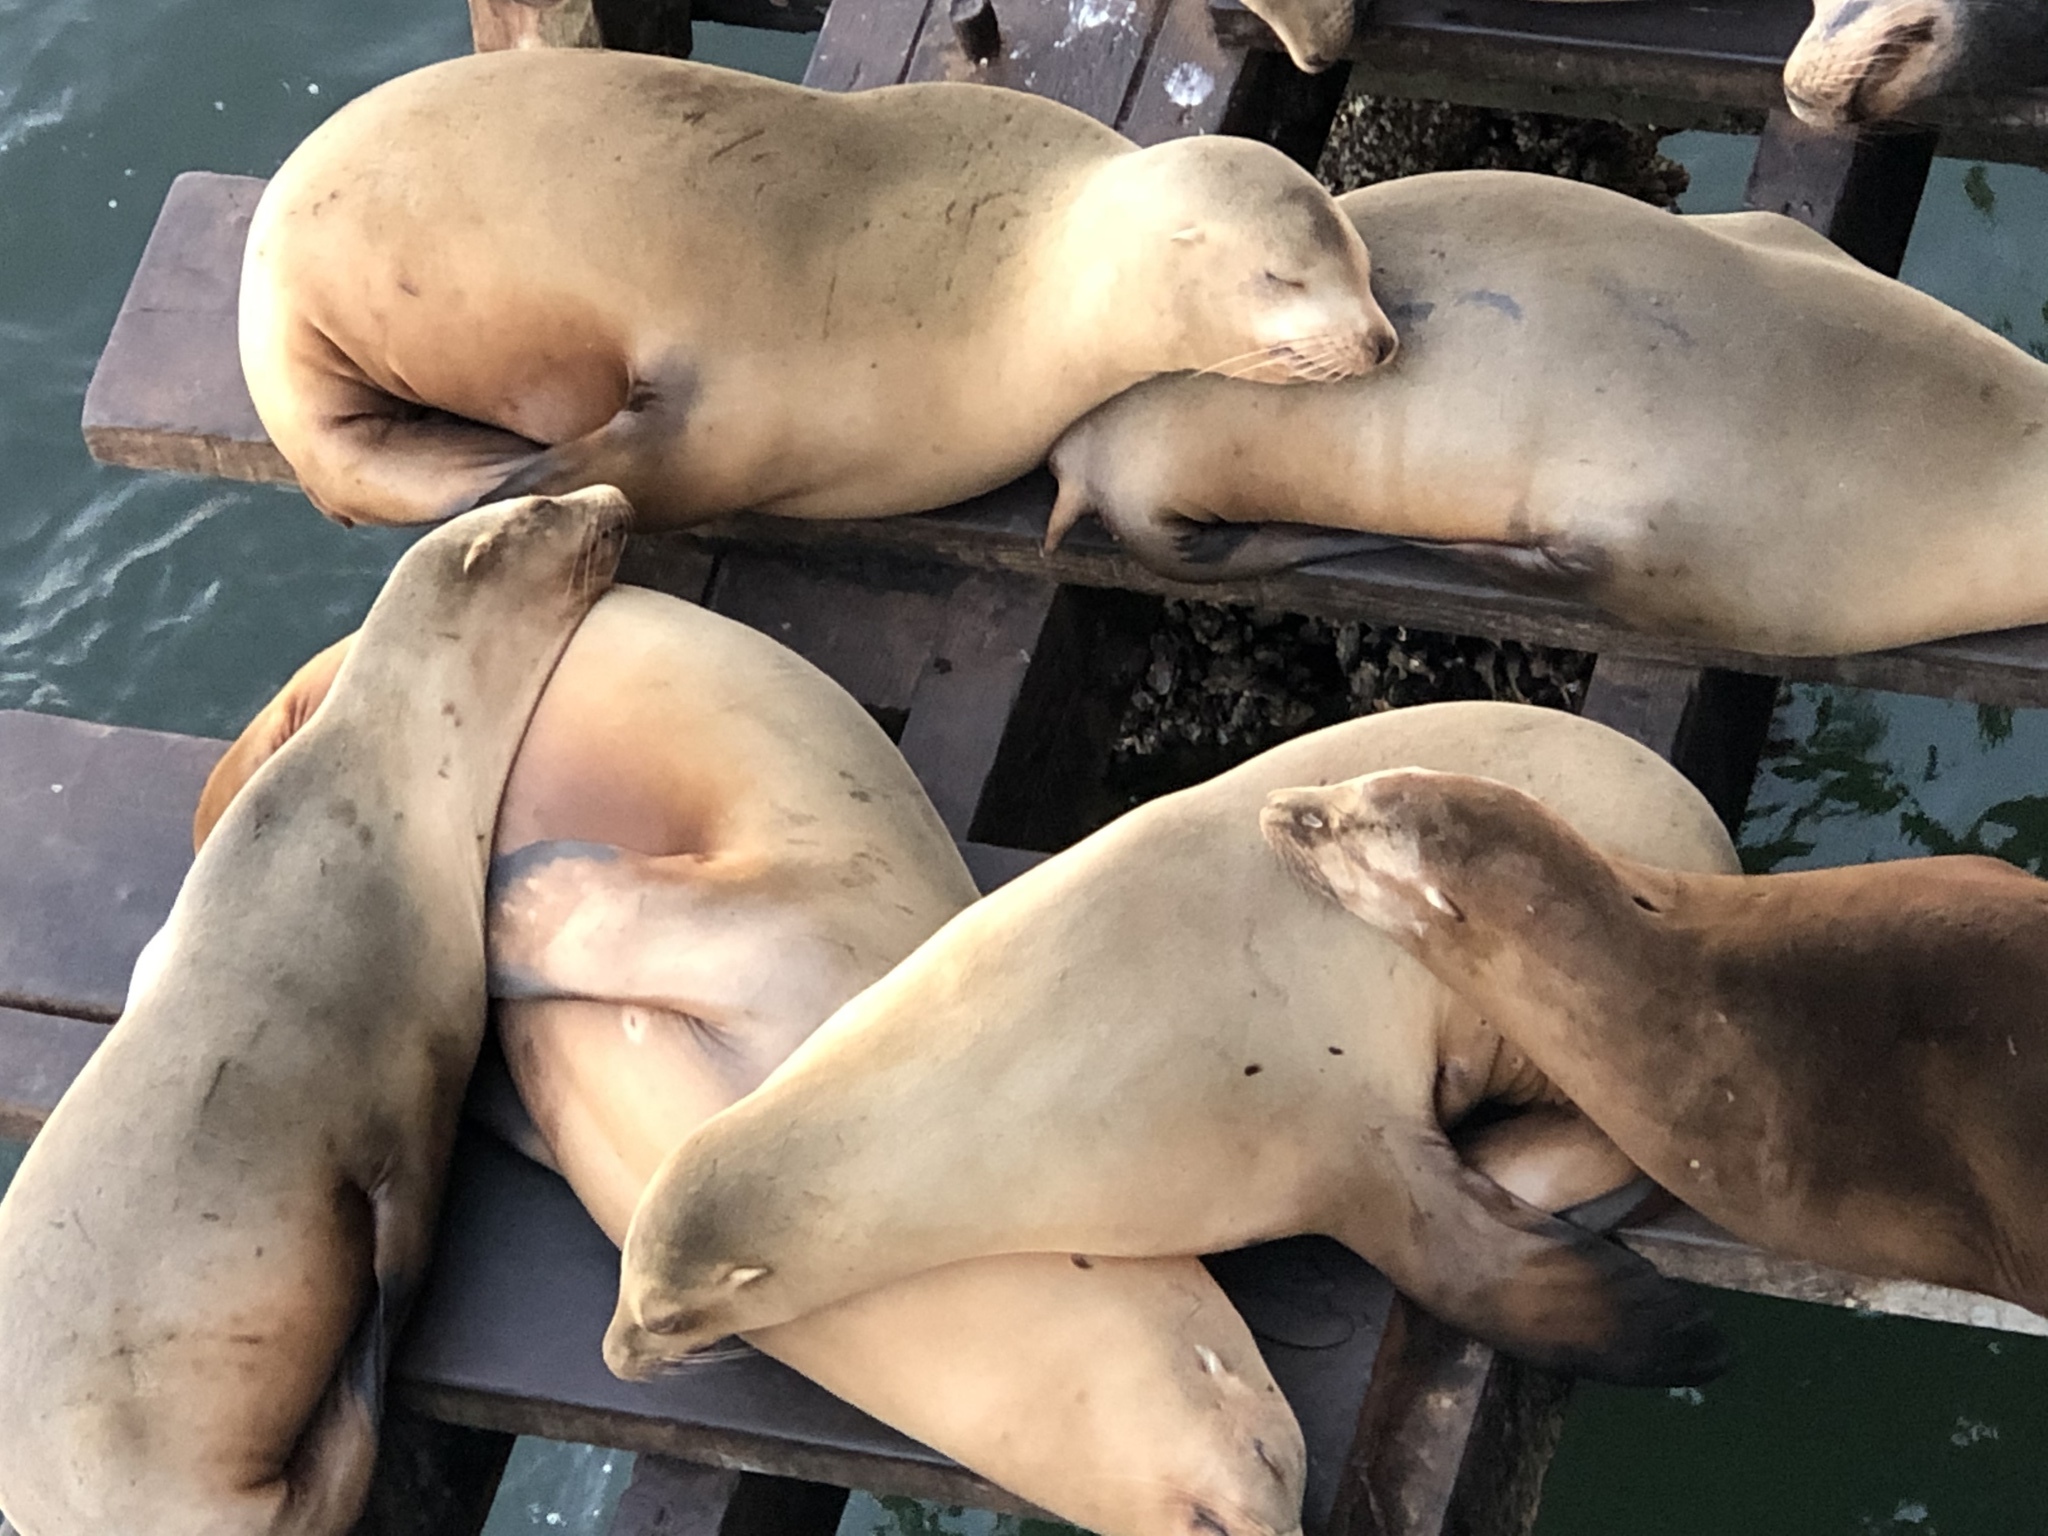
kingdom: Animalia
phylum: Chordata
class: Mammalia
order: Carnivora
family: Otariidae
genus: Zalophus
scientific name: Zalophus californianus
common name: California sea lion
